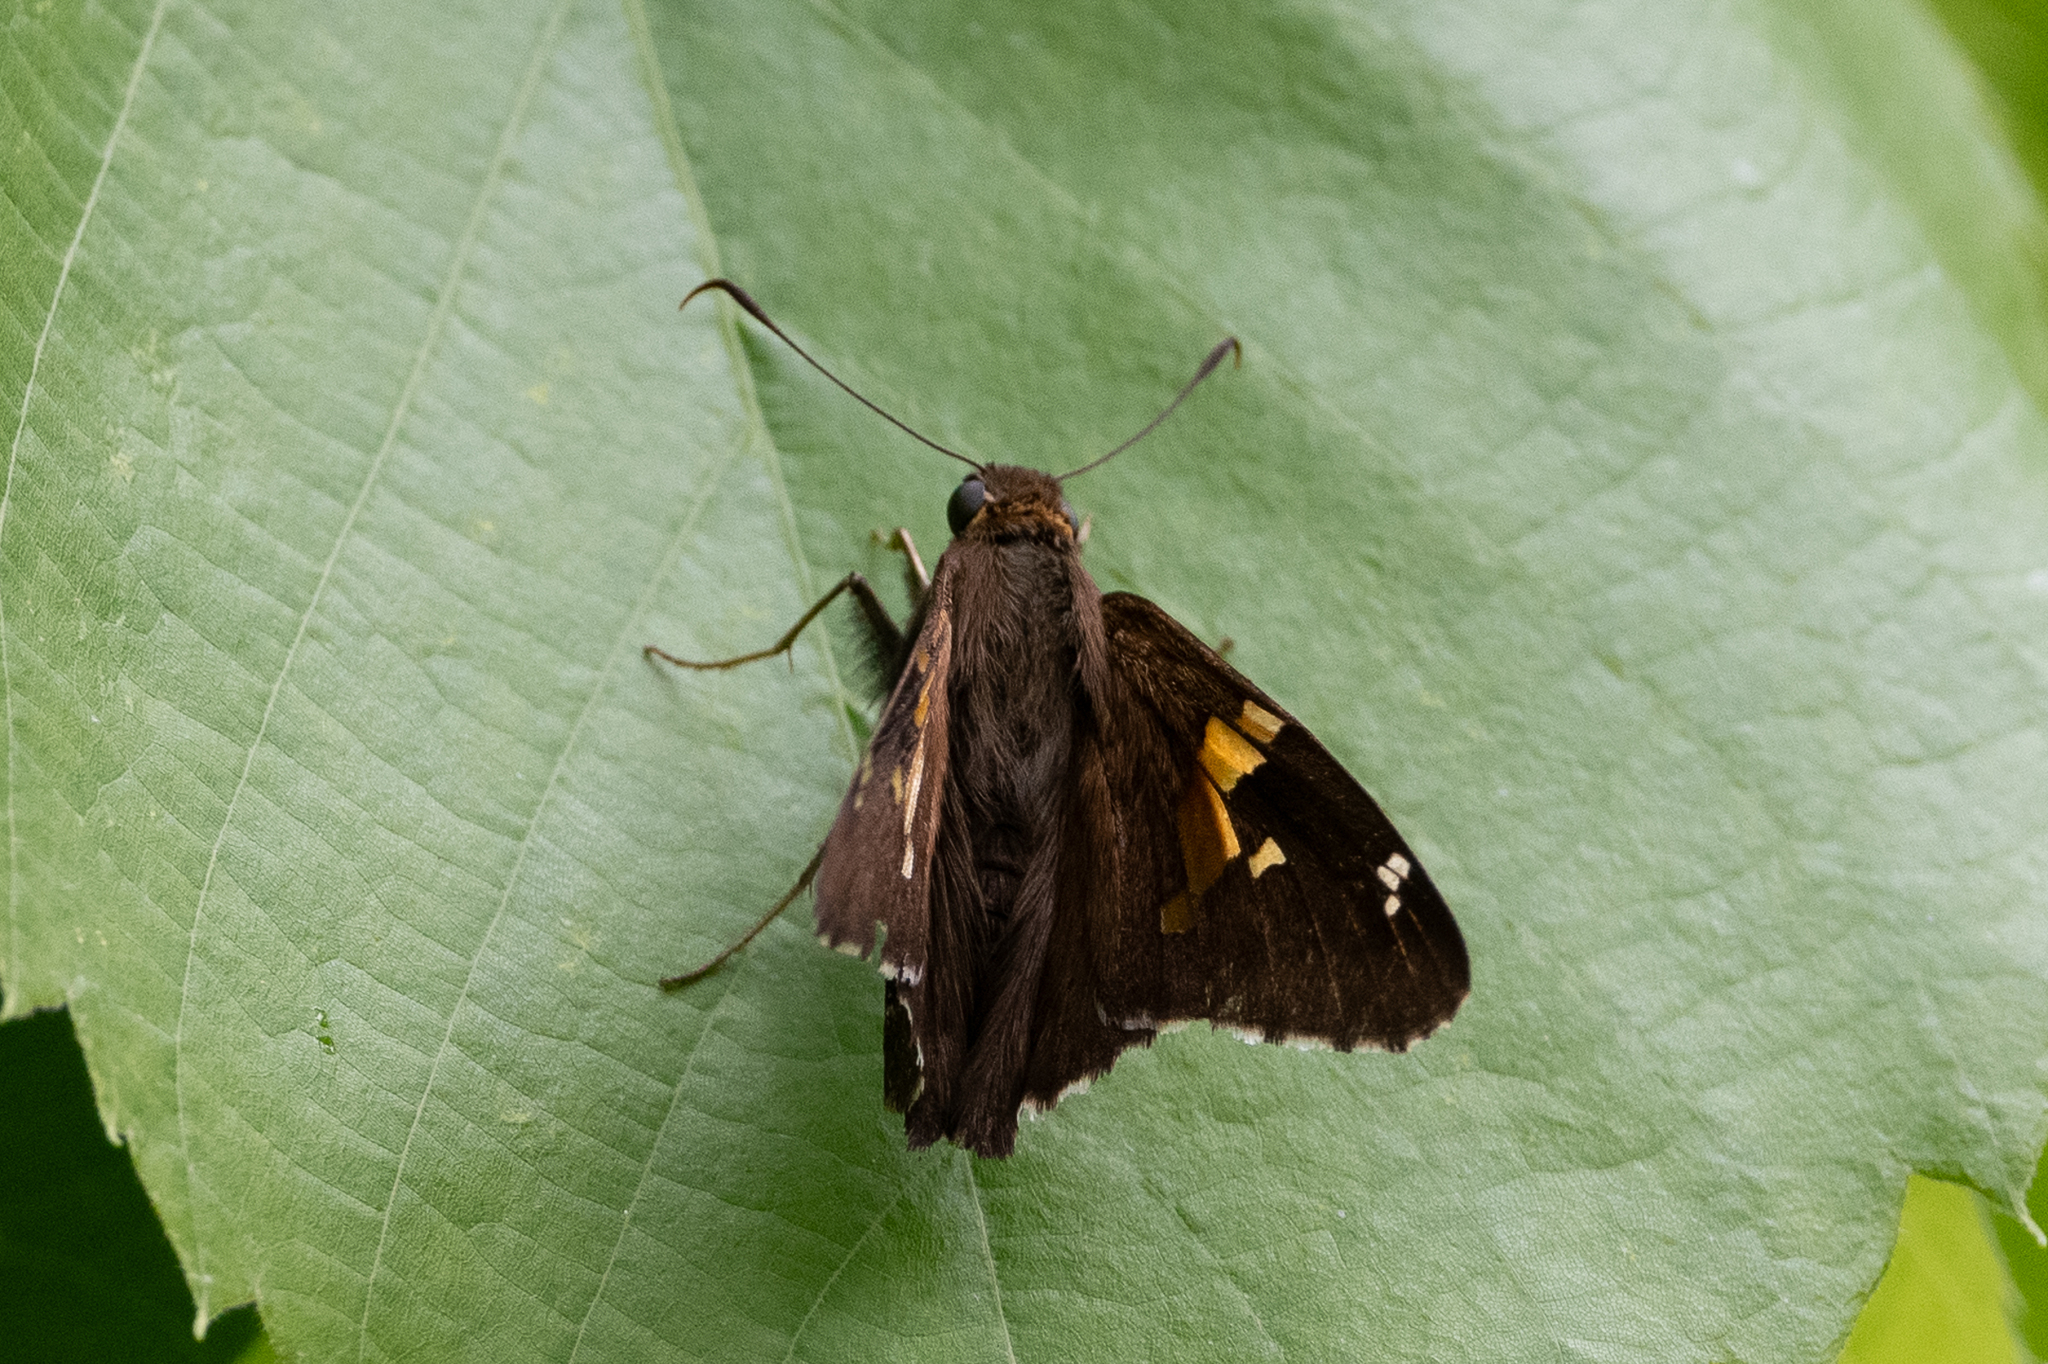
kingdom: Animalia
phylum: Arthropoda
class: Insecta
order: Lepidoptera
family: Hesperiidae
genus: Epargyreus
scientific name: Epargyreus clarus
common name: Silver-spotted skipper
